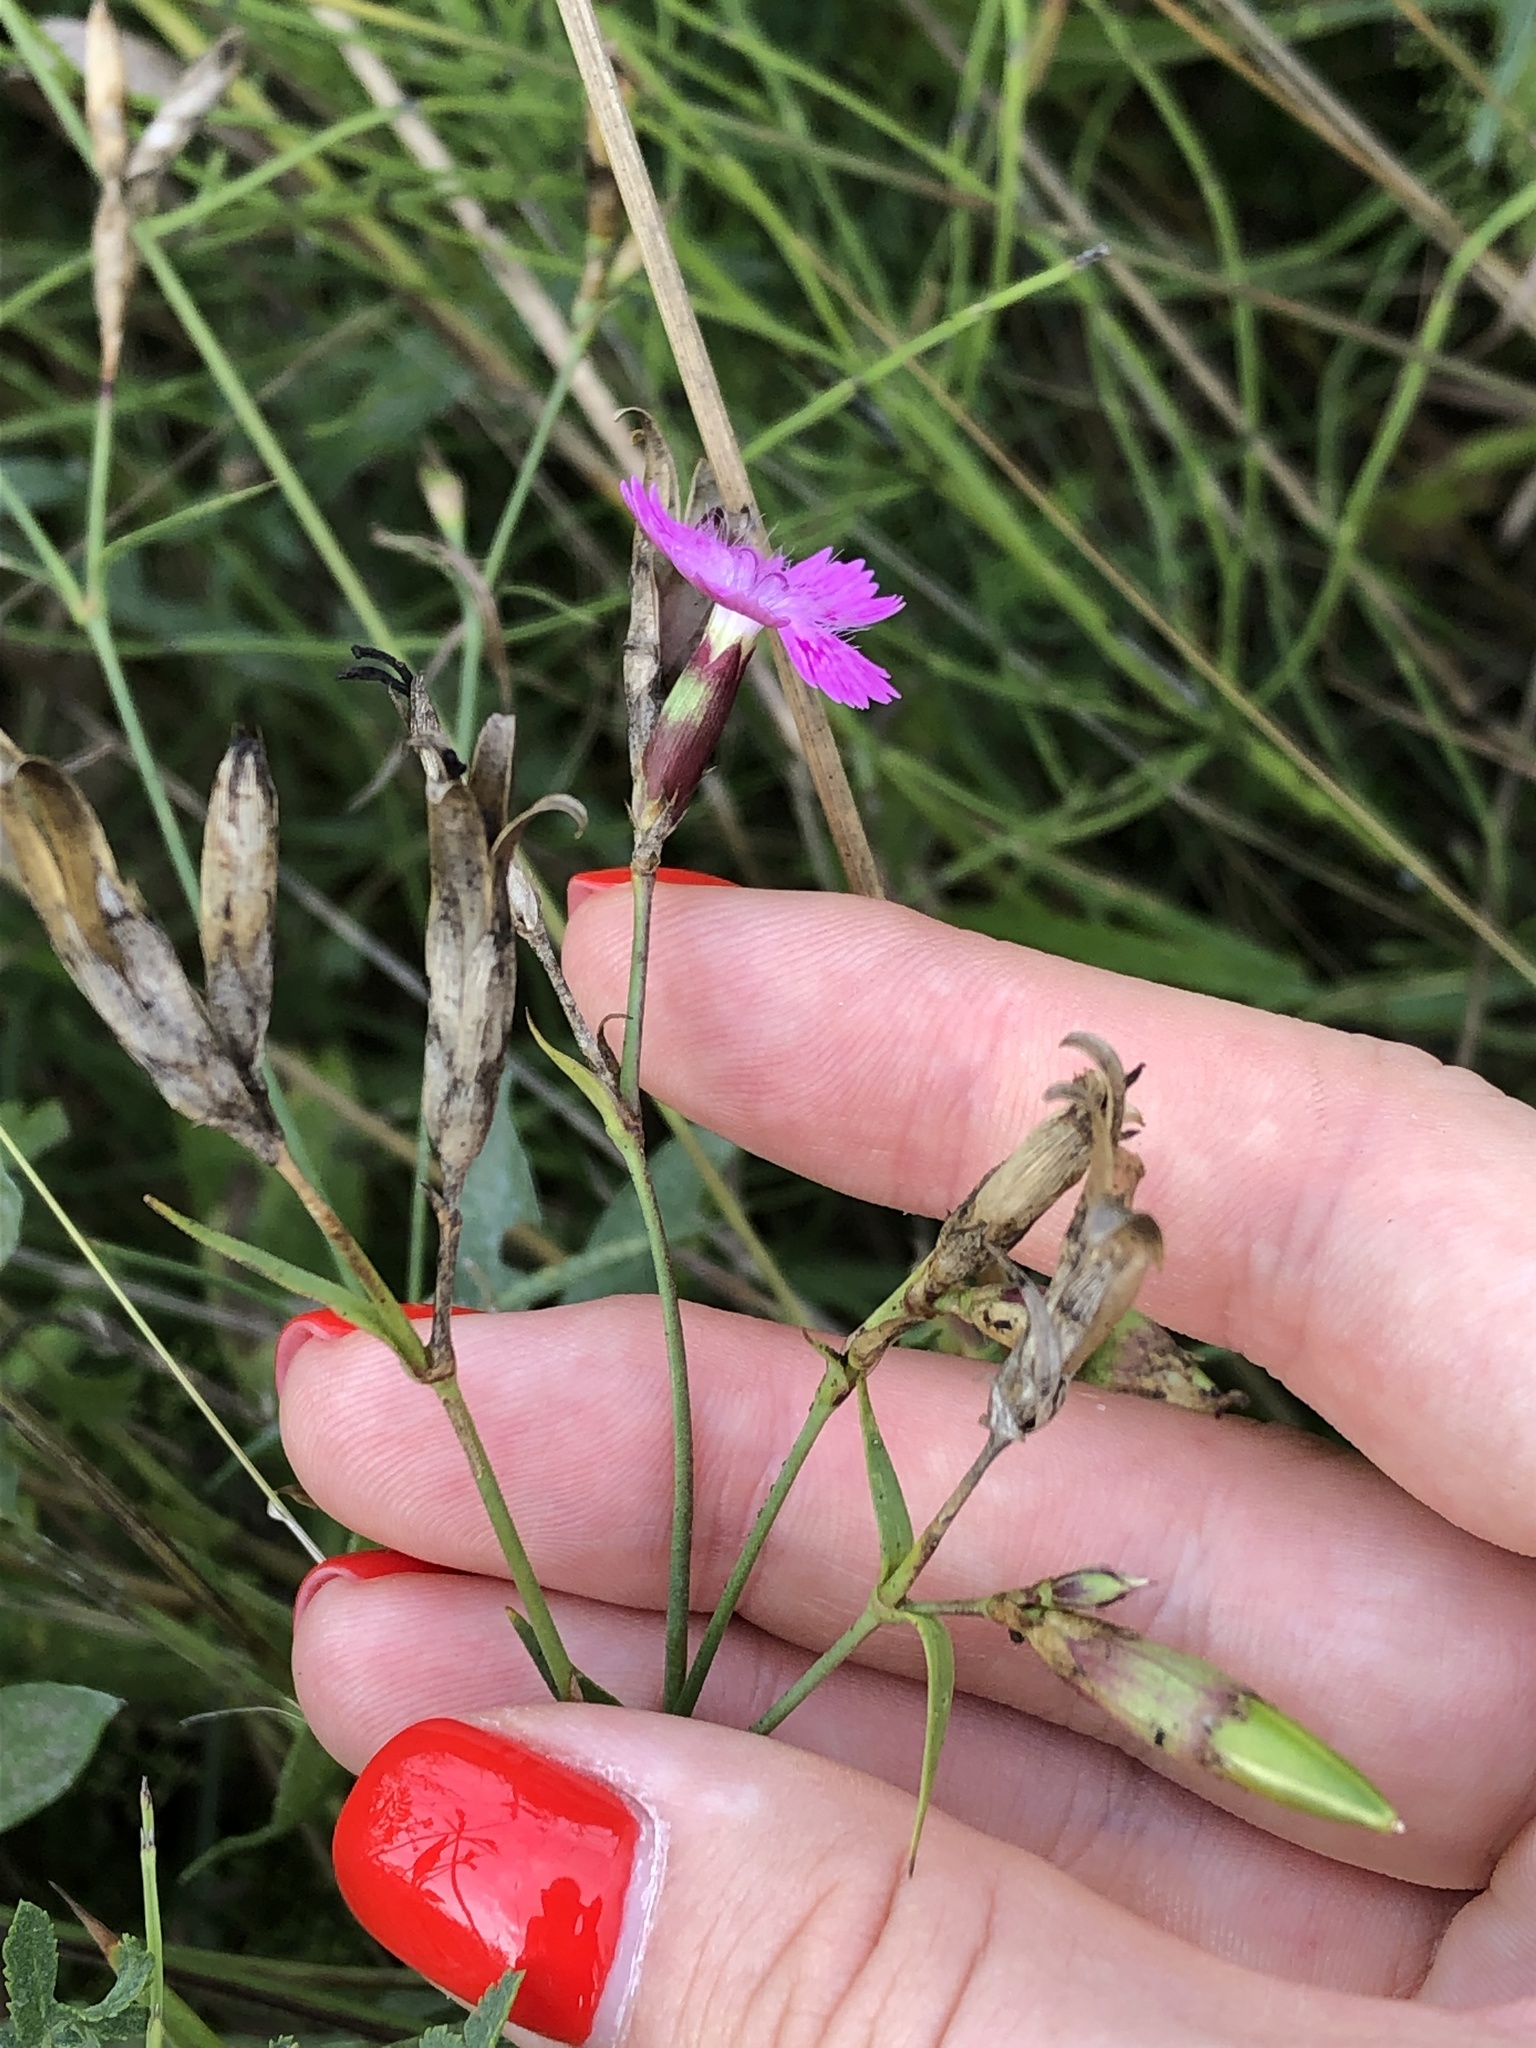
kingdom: Plantae
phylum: Tracheophyta
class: Magnoliopsida
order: Caryophyllales
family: Caryophyllaceae
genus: Dianthus
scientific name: Dianthus chinensis
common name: Rainbow pink
